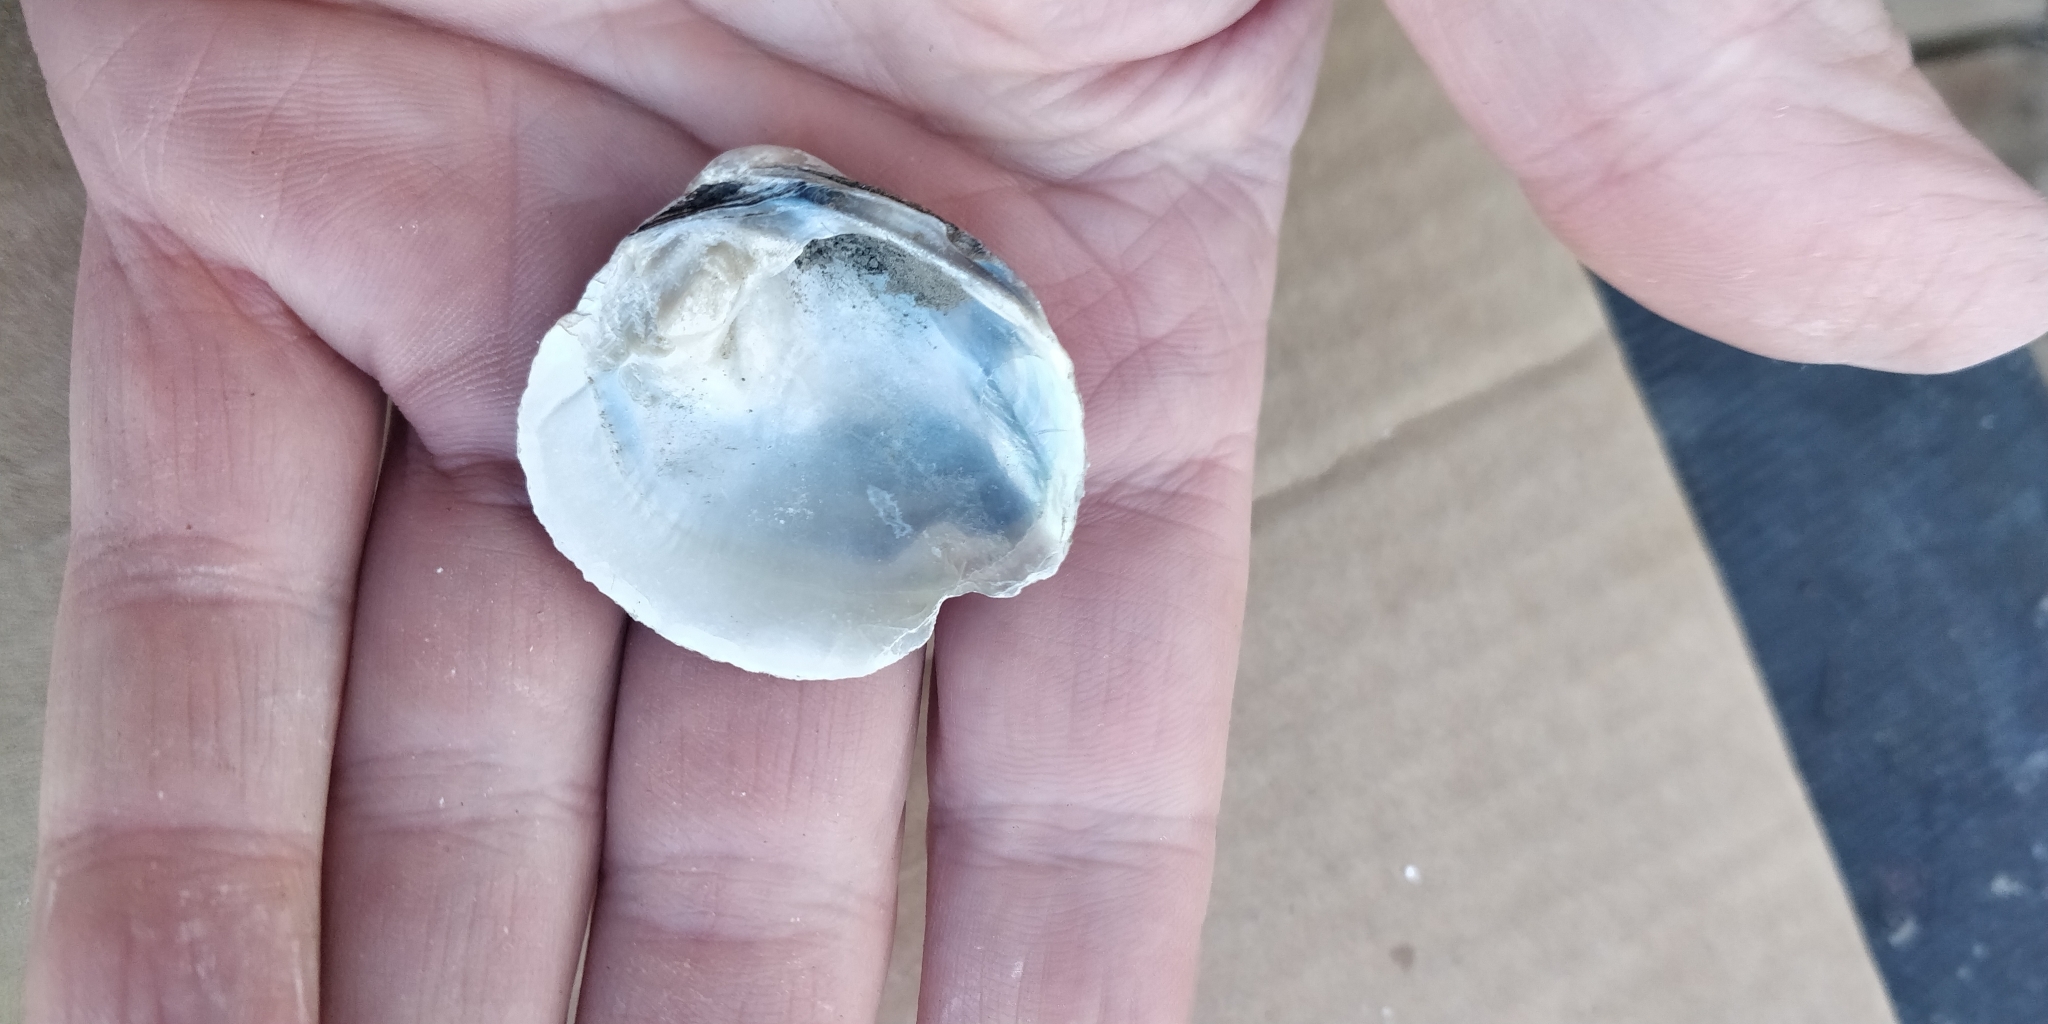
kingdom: Animalia
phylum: Mollusca
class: Bivalvia
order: Unionida
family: Unionidae
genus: Cyclonaias
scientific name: Cyclonaias pustulosa
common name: Pimpleback
